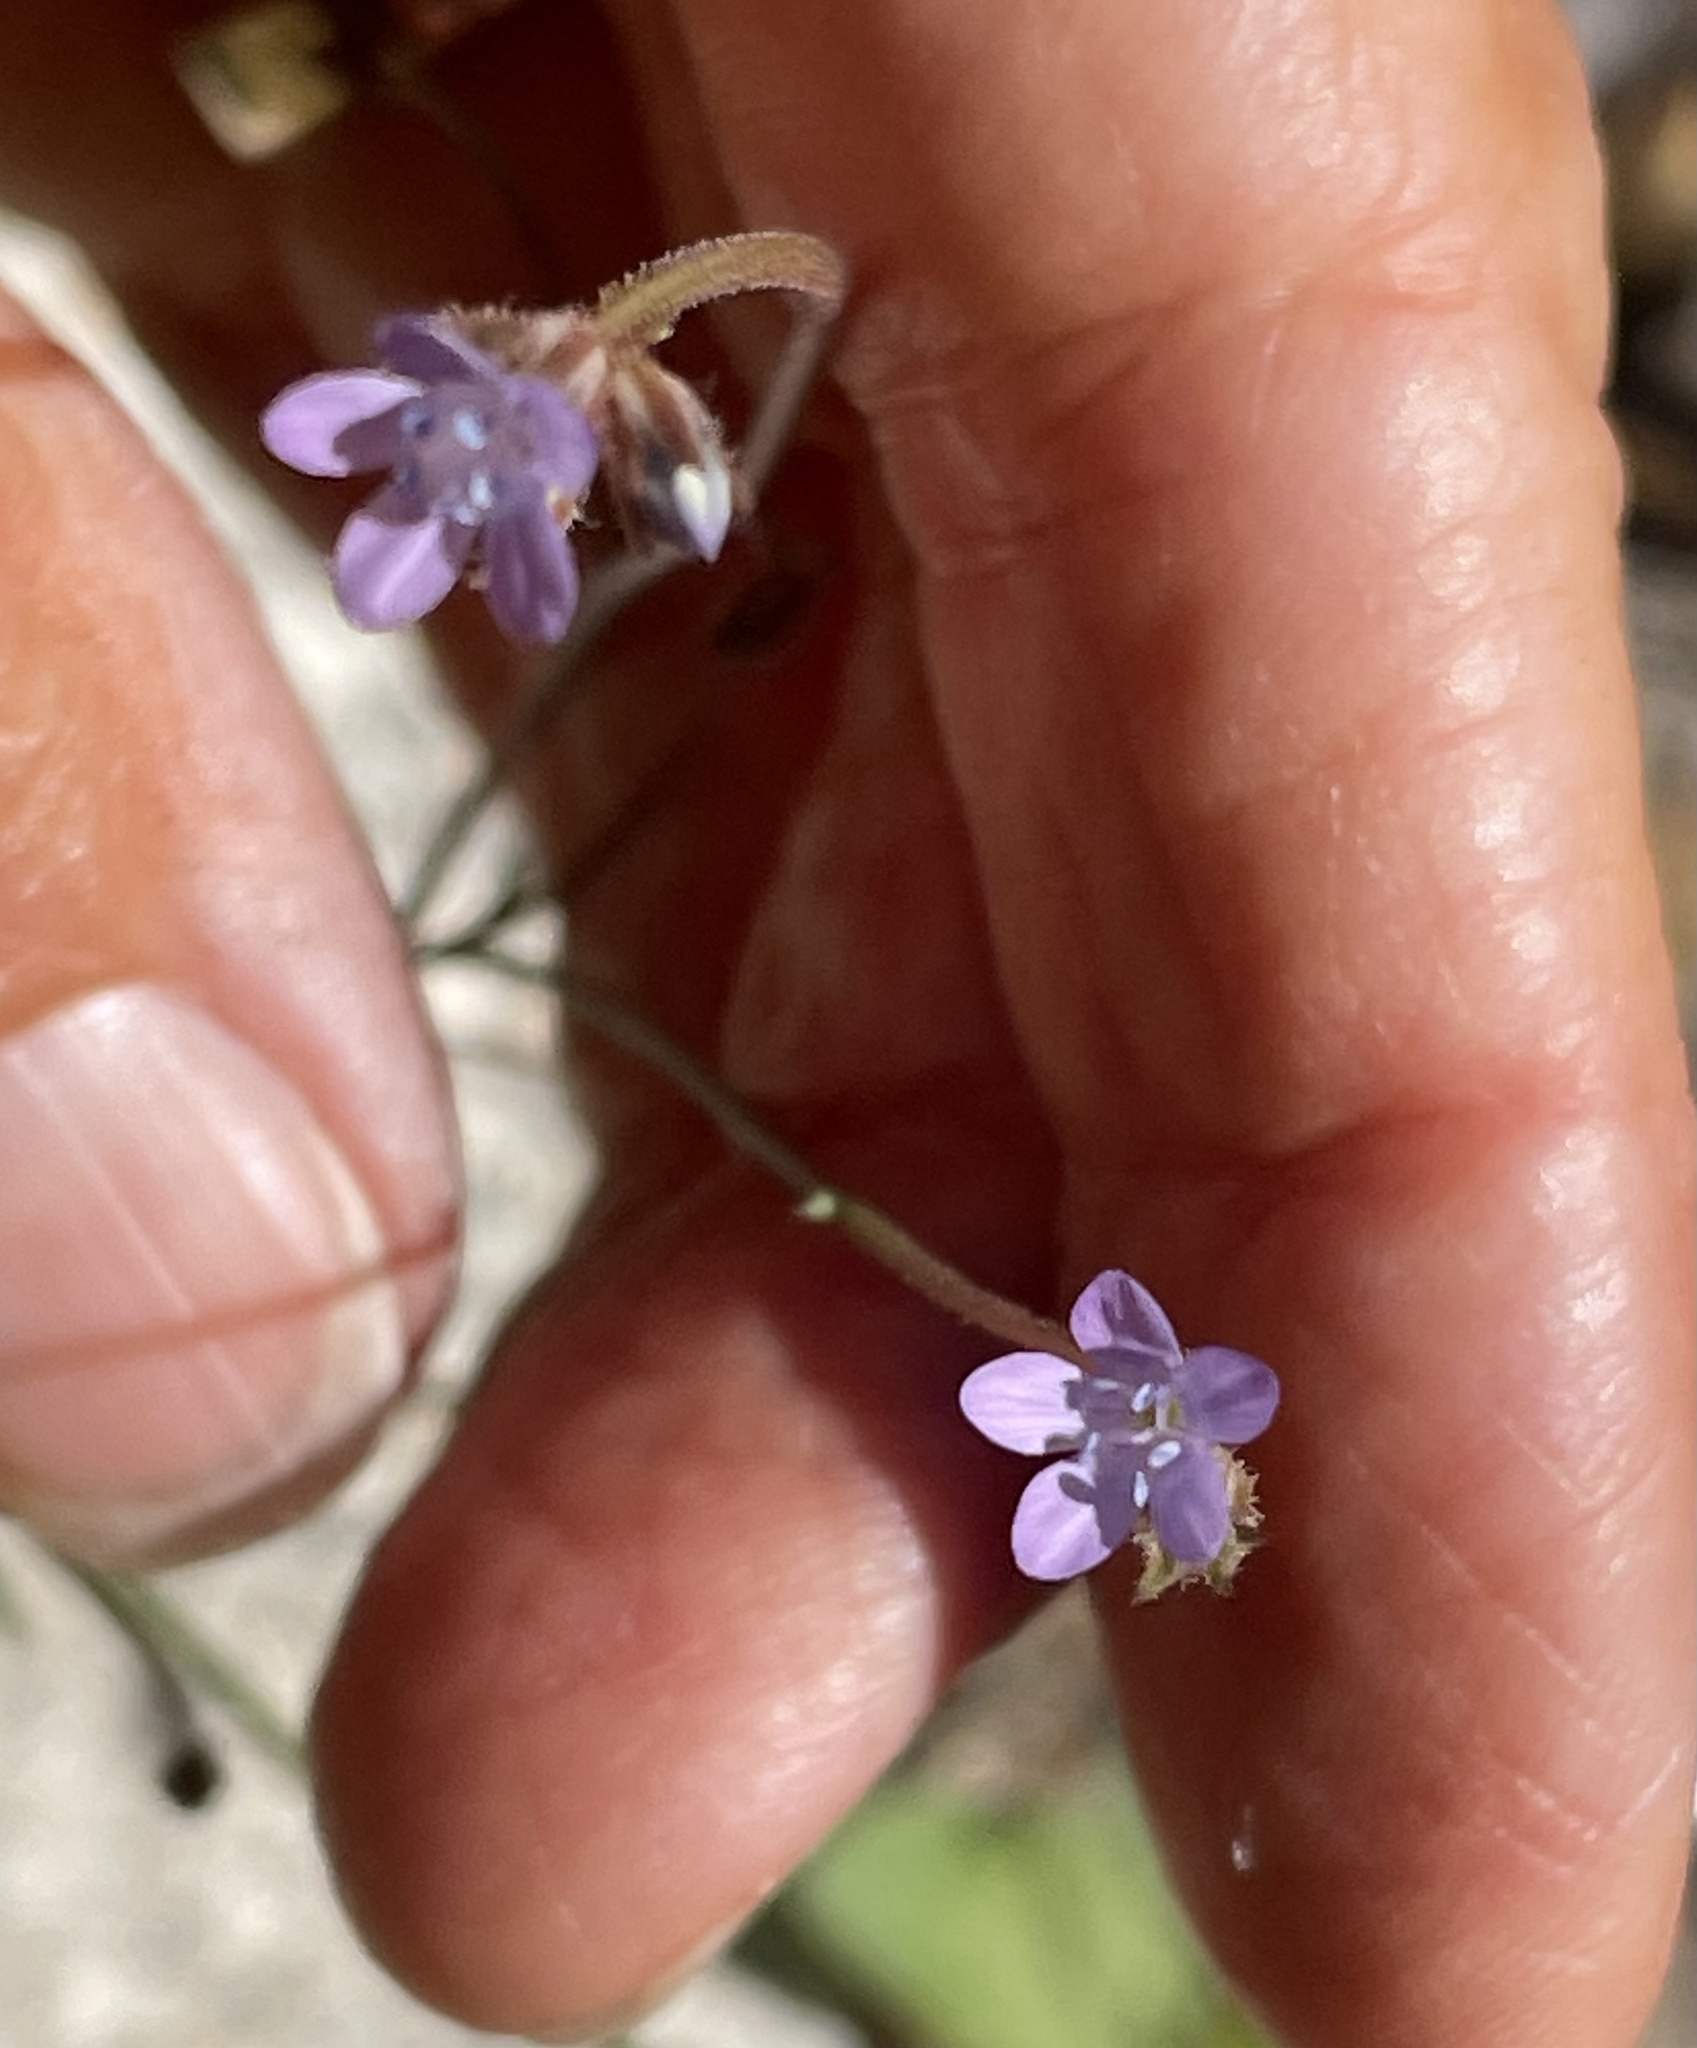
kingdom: Plantae
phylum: Tracheophyta
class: Magnoliopsida
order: Ericales
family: Polemoniaceae
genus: Gilia
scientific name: Gilia achilleifolia
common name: California gily-flower
